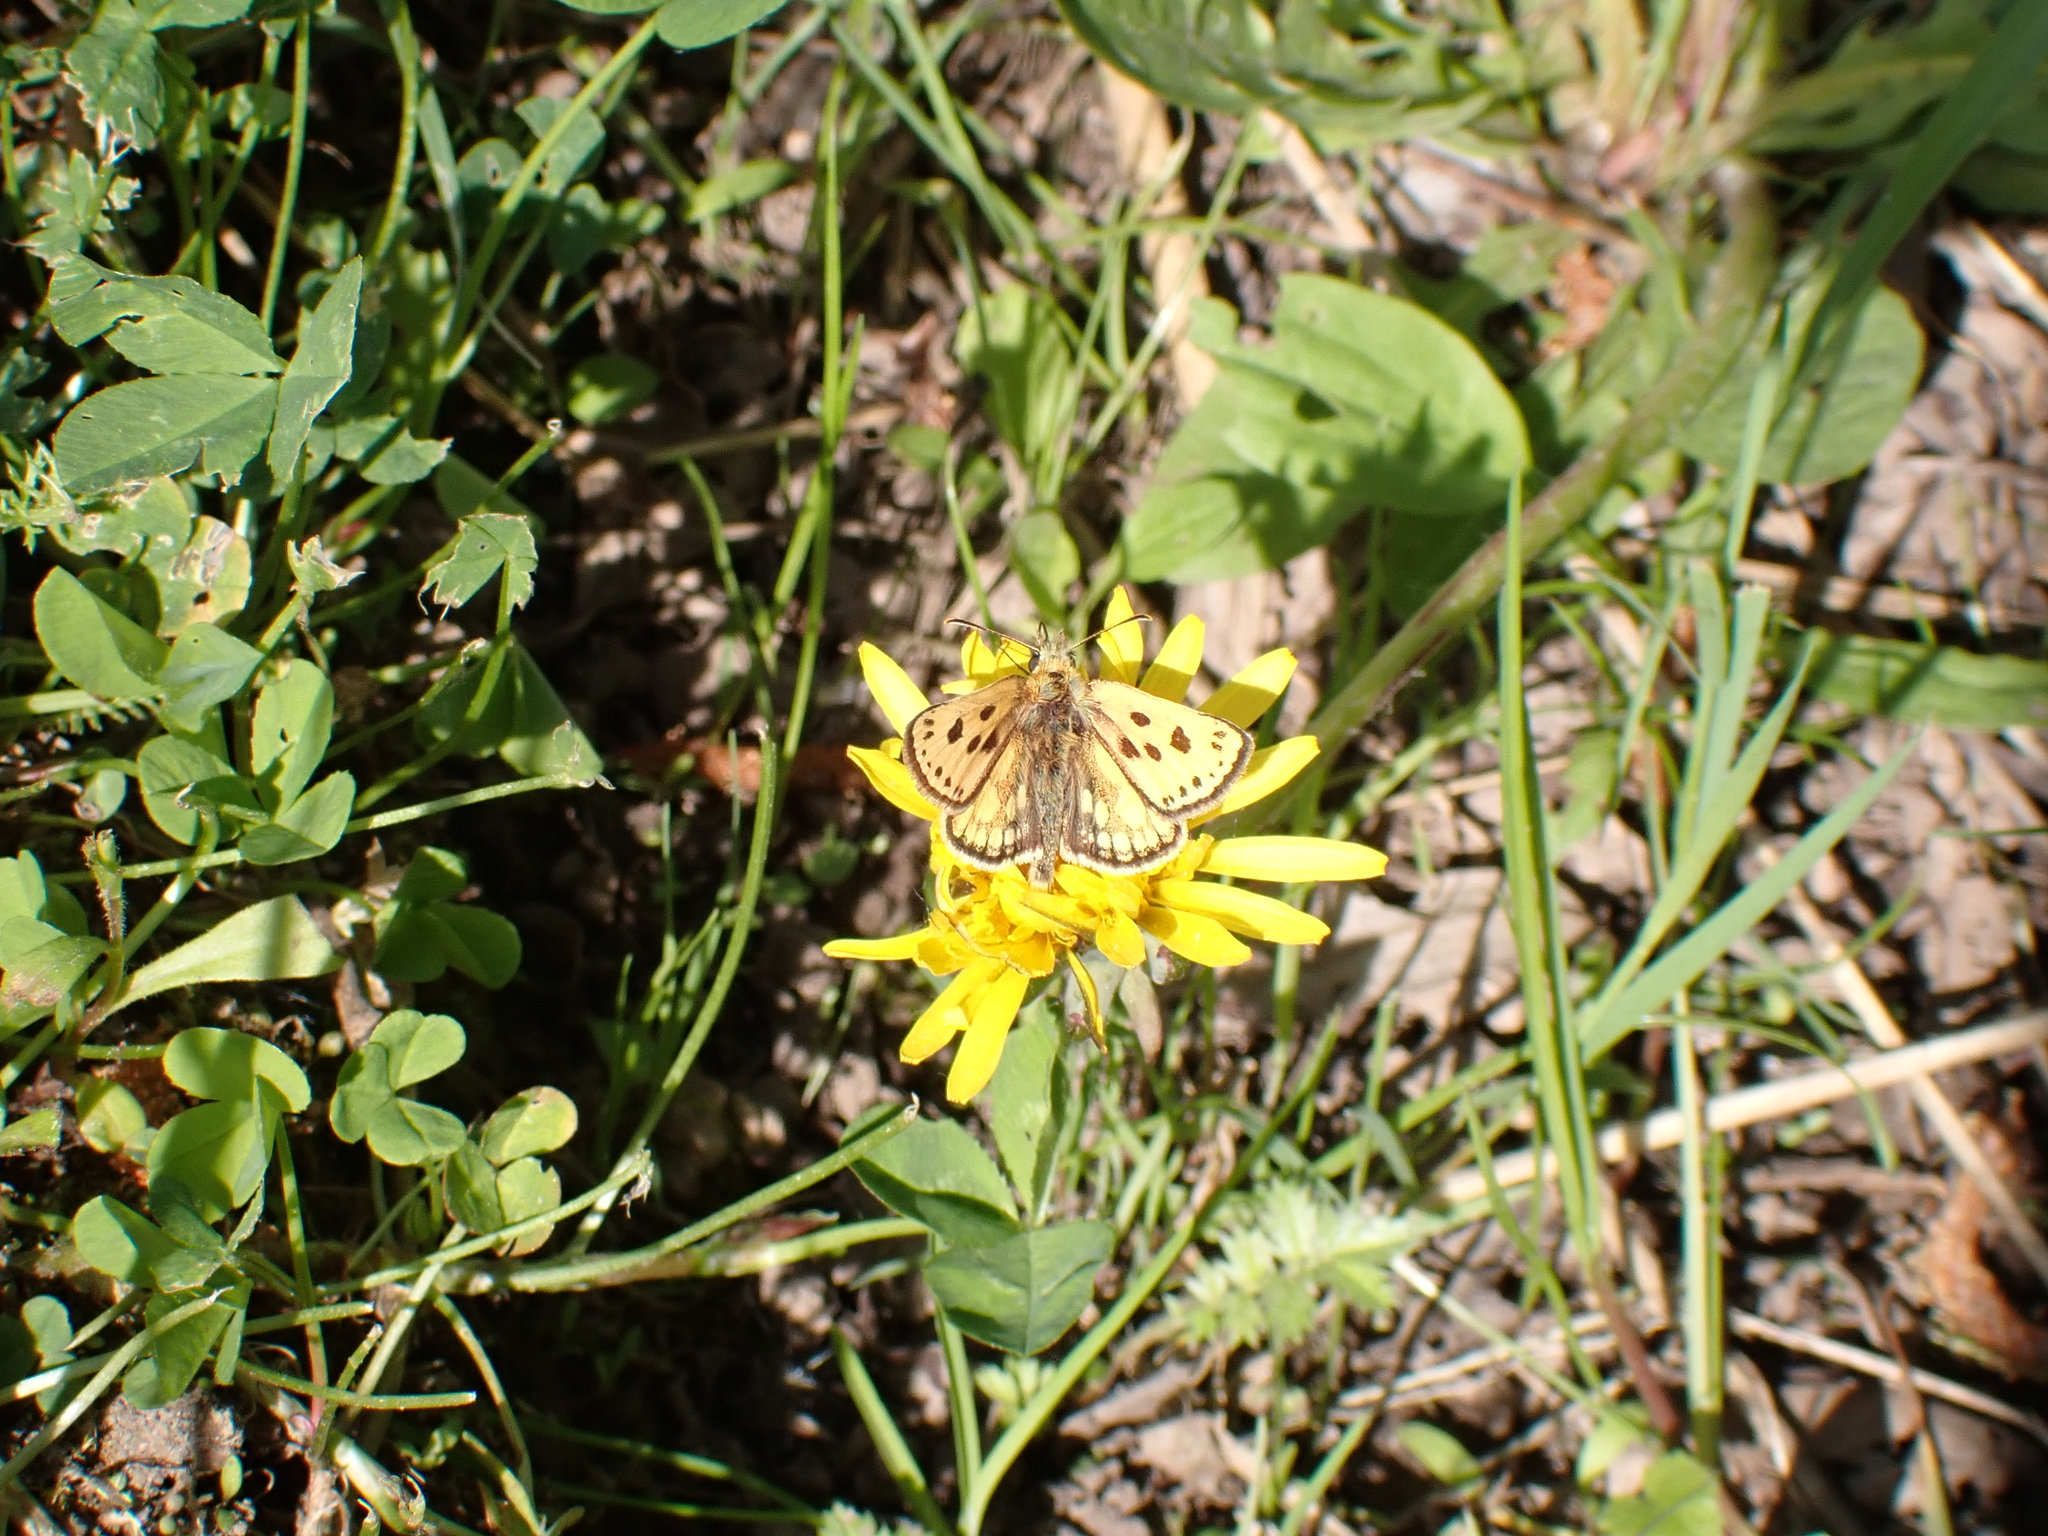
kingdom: Animalia
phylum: Arthropoda
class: Insecta
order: Lepidoptera
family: Hesperiidae
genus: Carterocephalus
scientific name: Carterocephalus silvicola
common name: Northern chequered skipper
